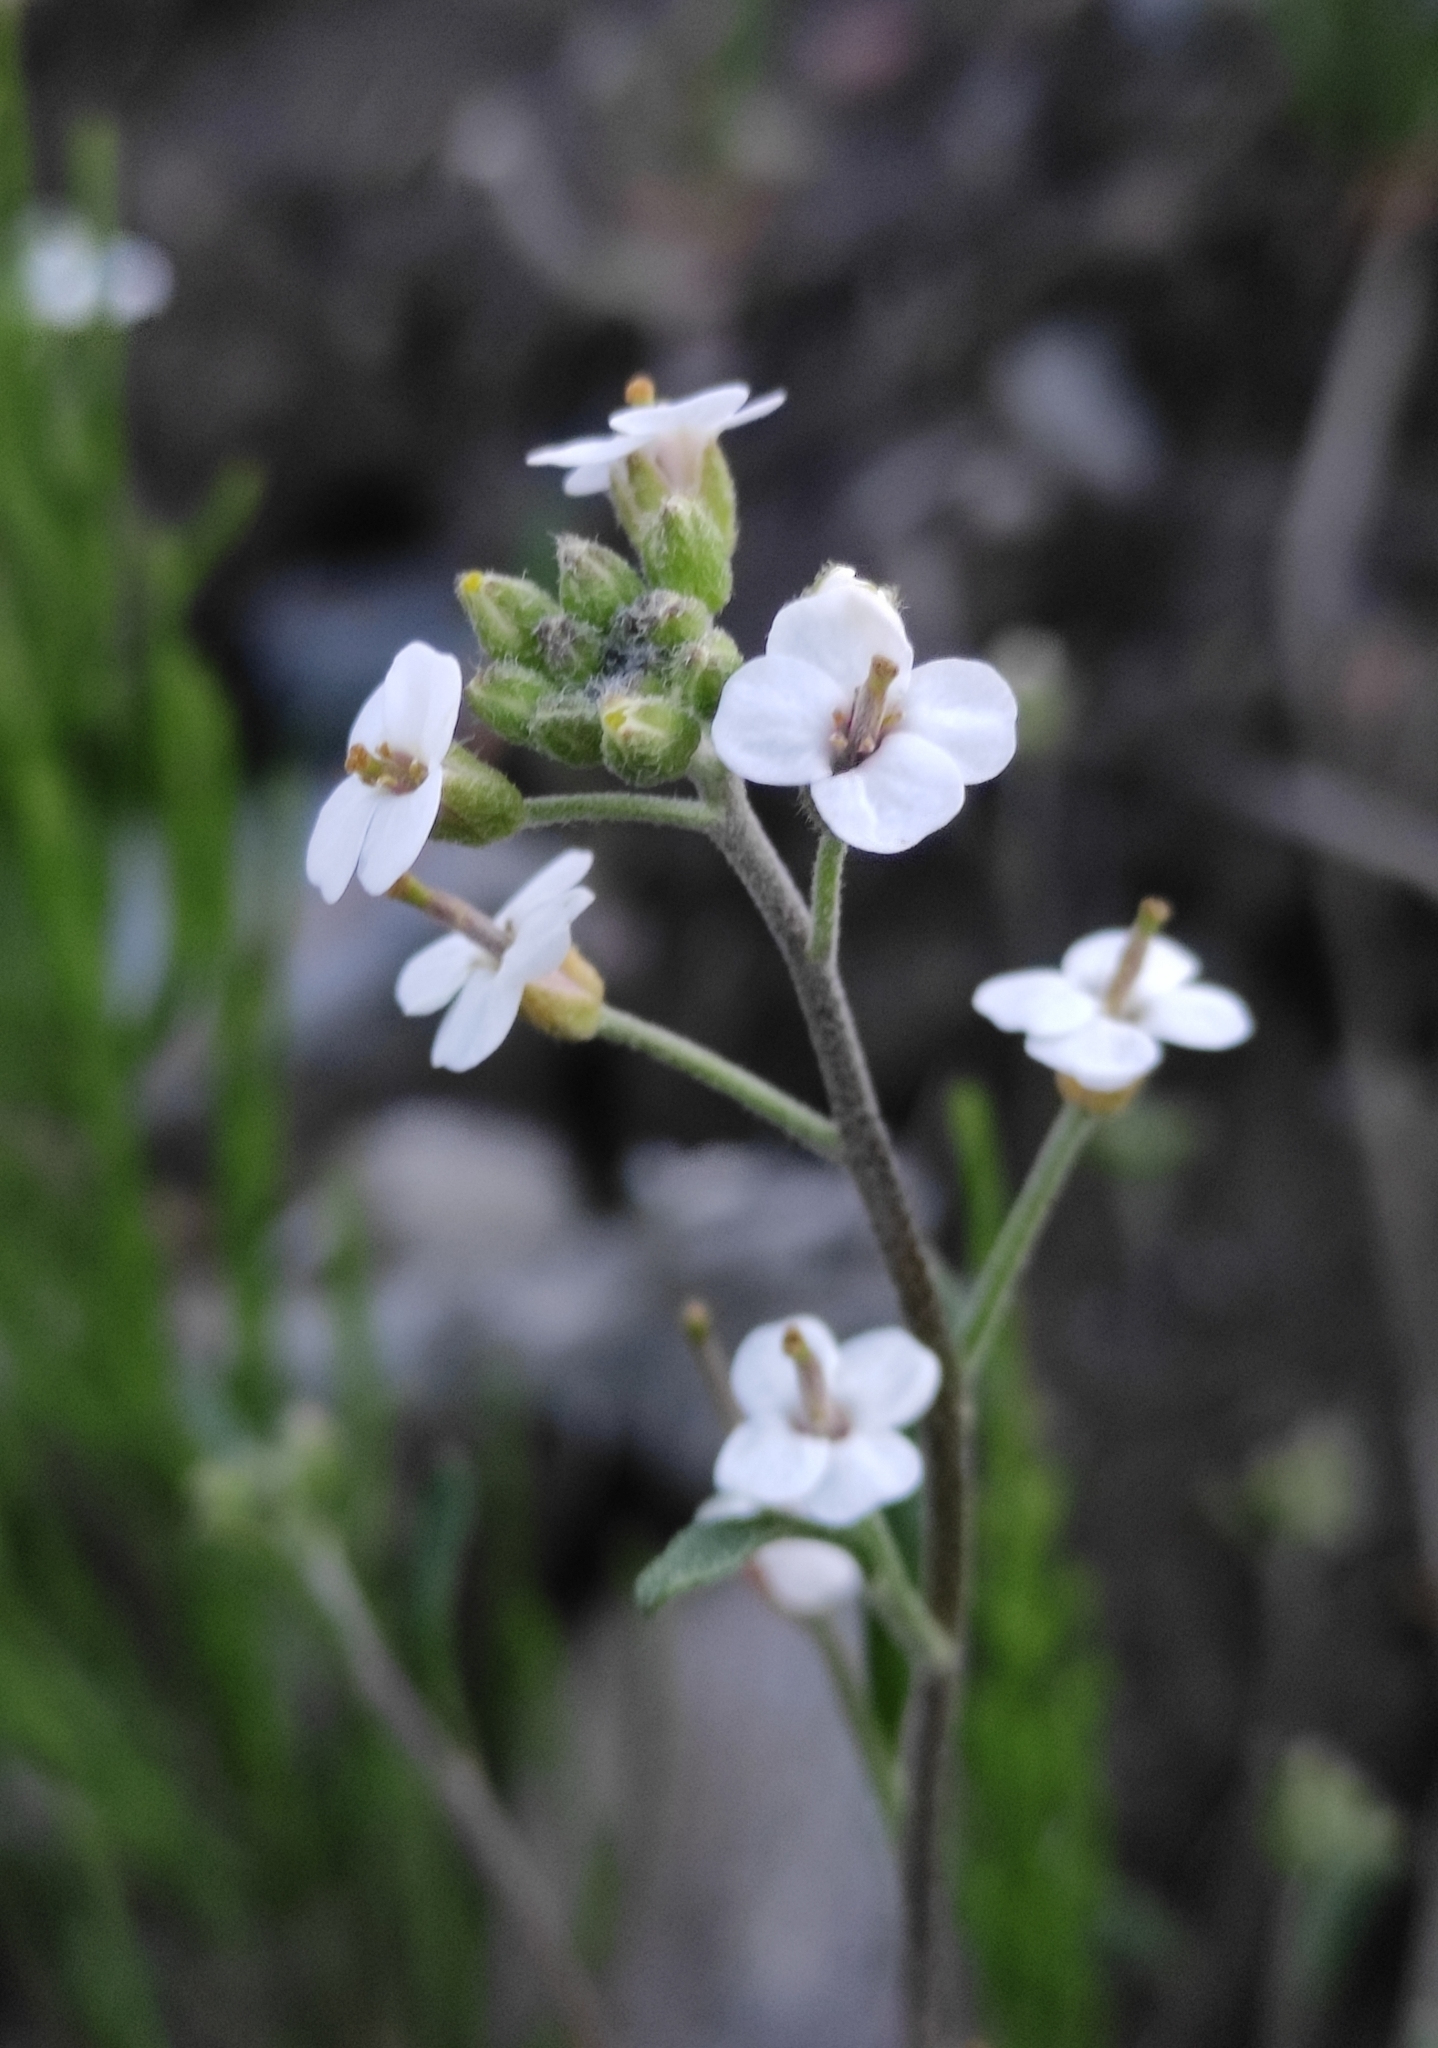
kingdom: Plantae
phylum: Tracheophyta
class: Magnoliopsida
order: Brassicales
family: Brassicaceae
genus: Braya
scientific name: Braya humilis
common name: Alpine northern rockcress
